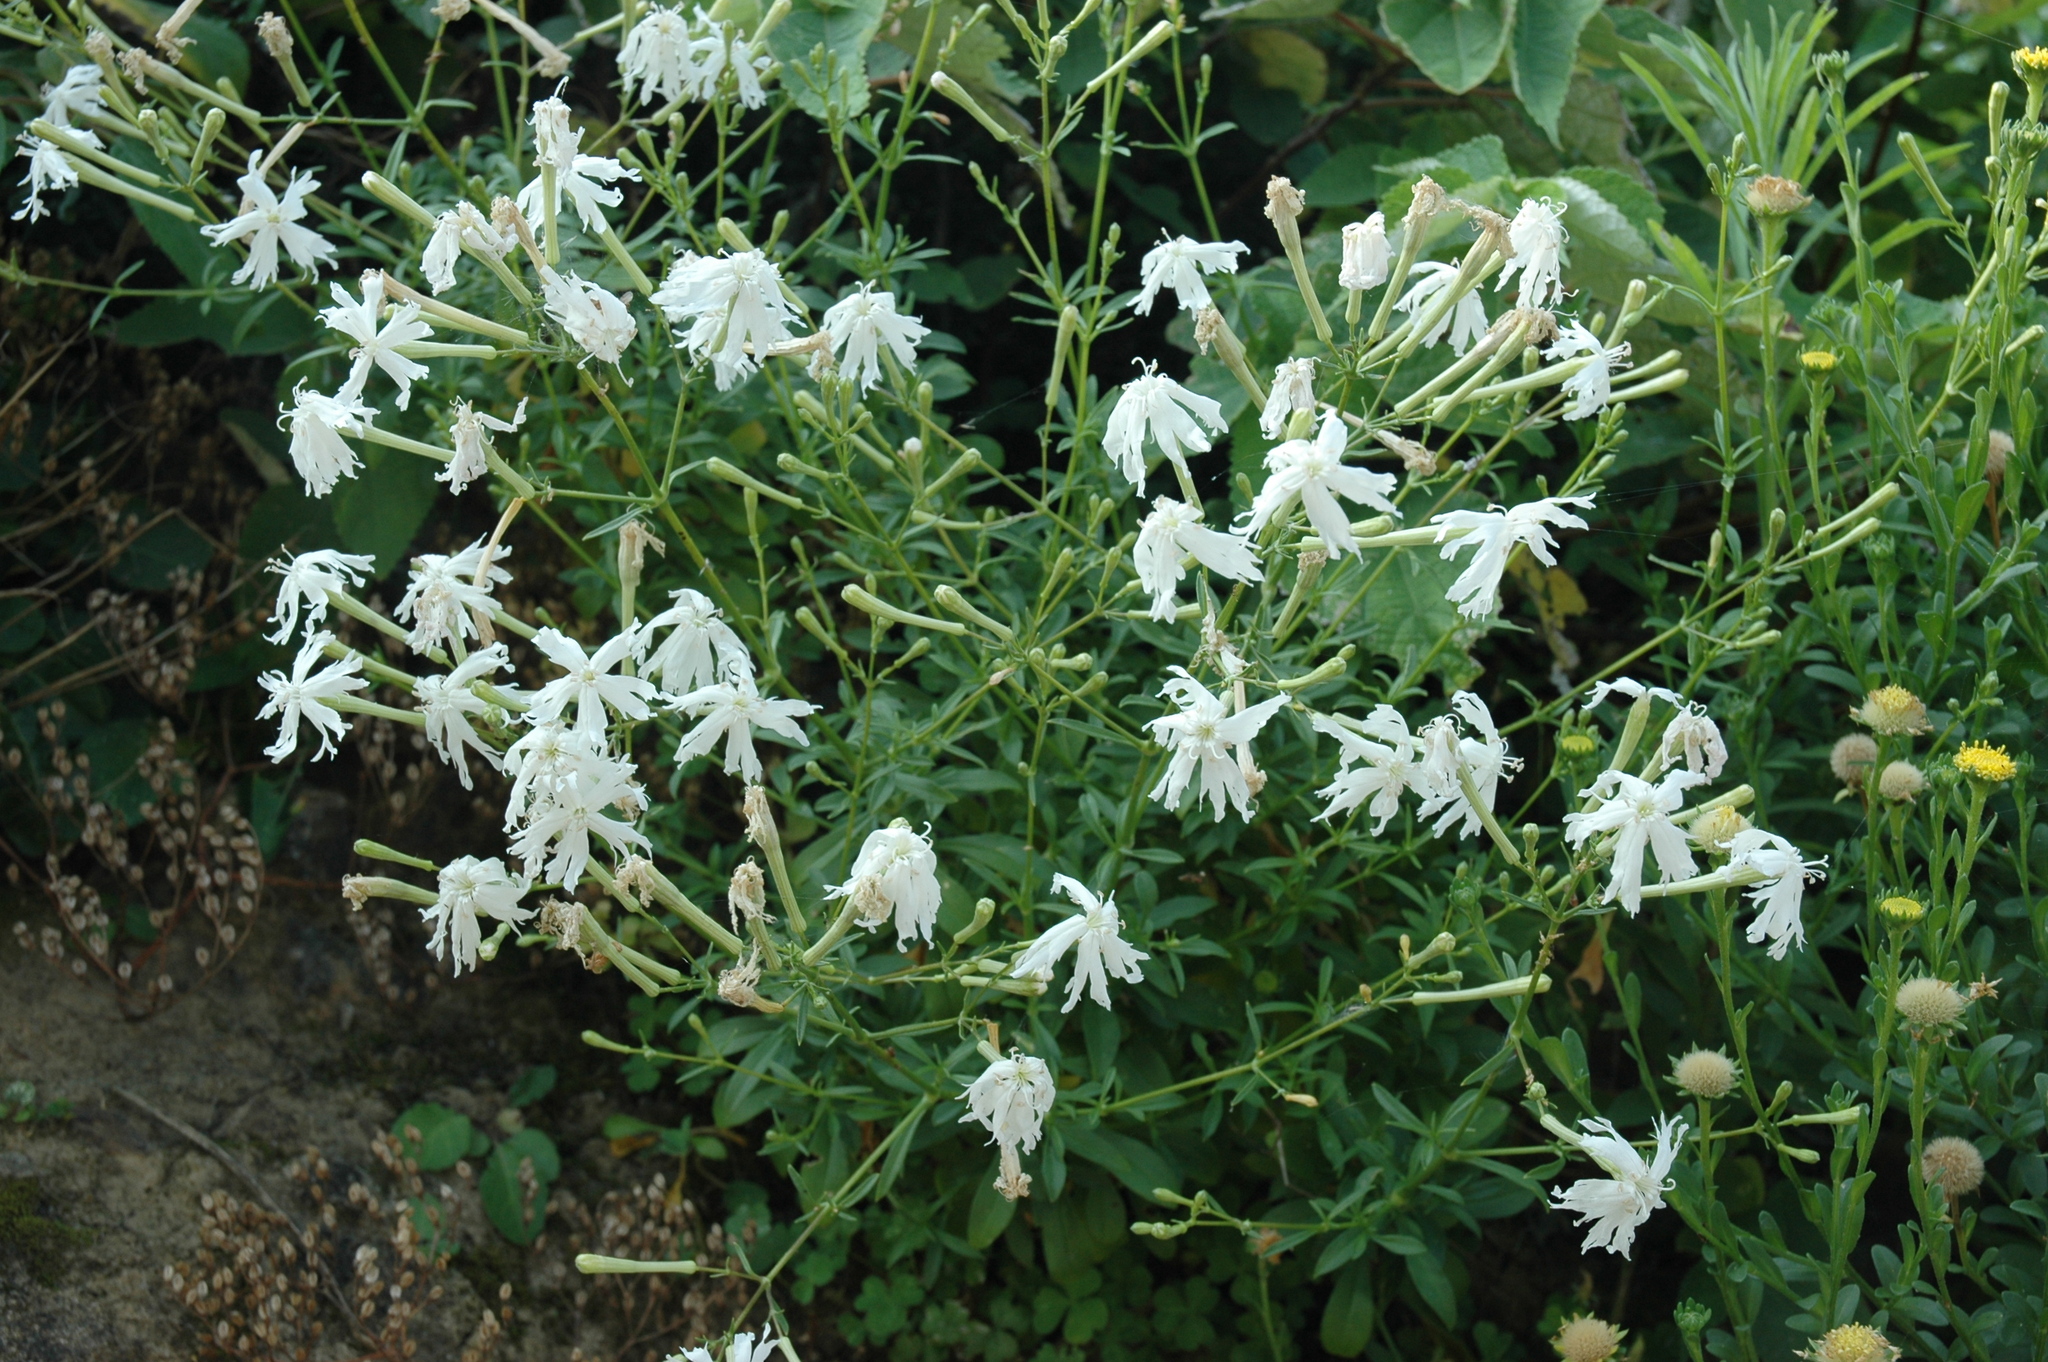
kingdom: Plantae
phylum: Tracheophyta
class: Magnoliopsida
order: Caryophyllales
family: Caryophyllaceae
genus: Silene
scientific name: Silene fissipetala
